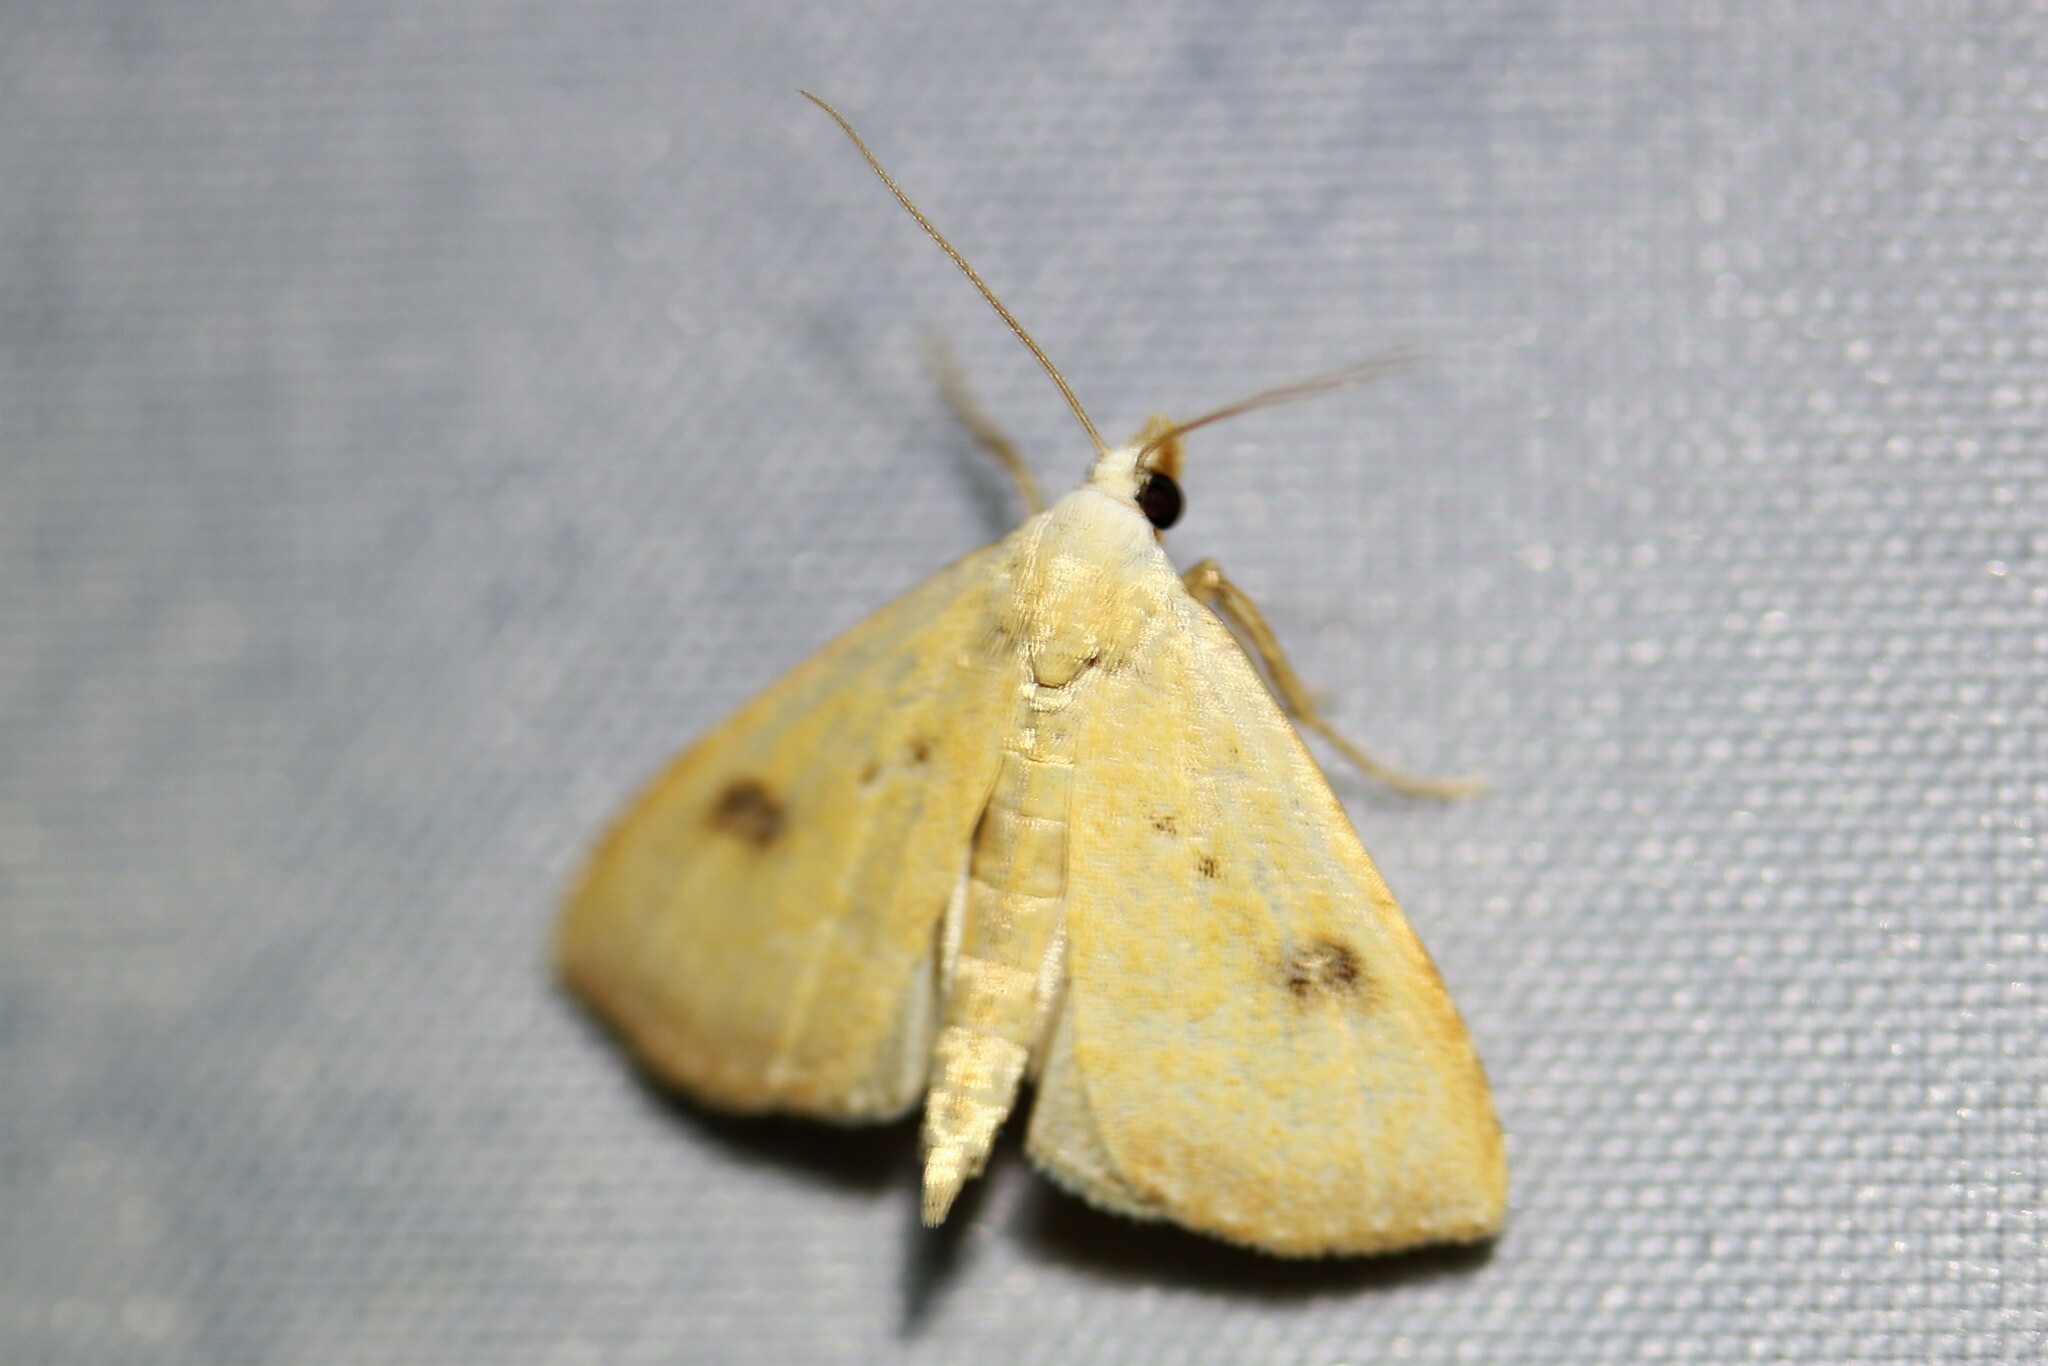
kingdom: Animalia
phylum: Arthropoda
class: Insecta
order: Lepidoptera
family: Erebidae
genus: Rivula
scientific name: Rivula sericealis
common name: Straw dot
